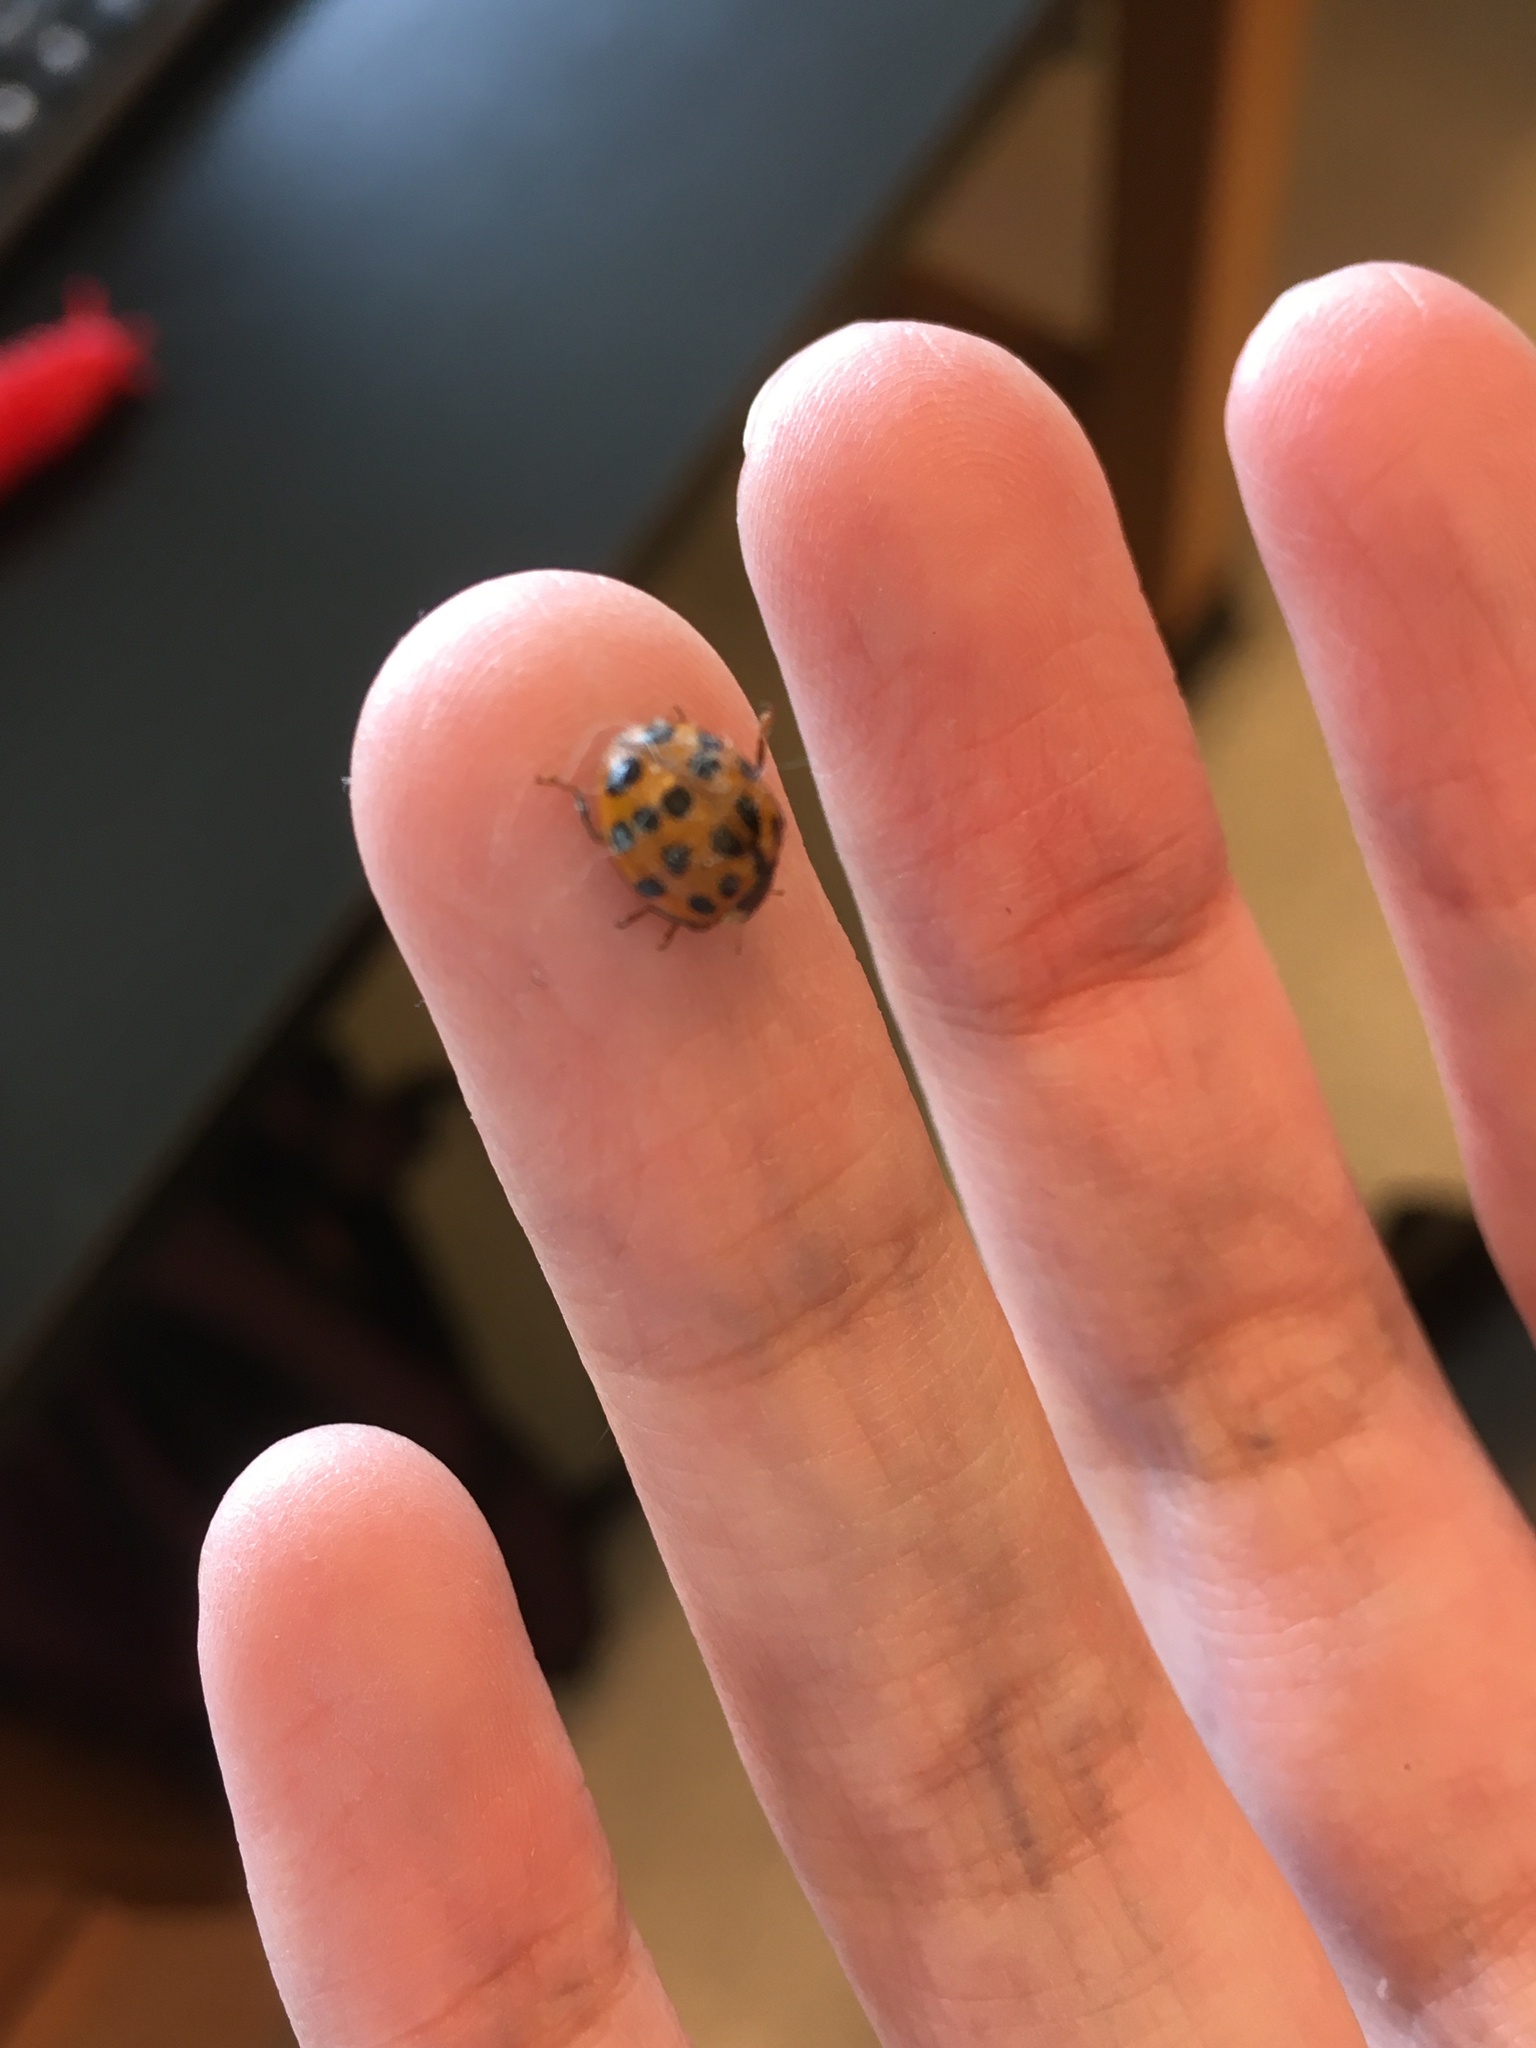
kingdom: Animalia
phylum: Arthropoda
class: Insecta
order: Coleoptera
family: Coccinellidae
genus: Harmonia
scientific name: Harmonia axyridis
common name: Harlequin ladybird
